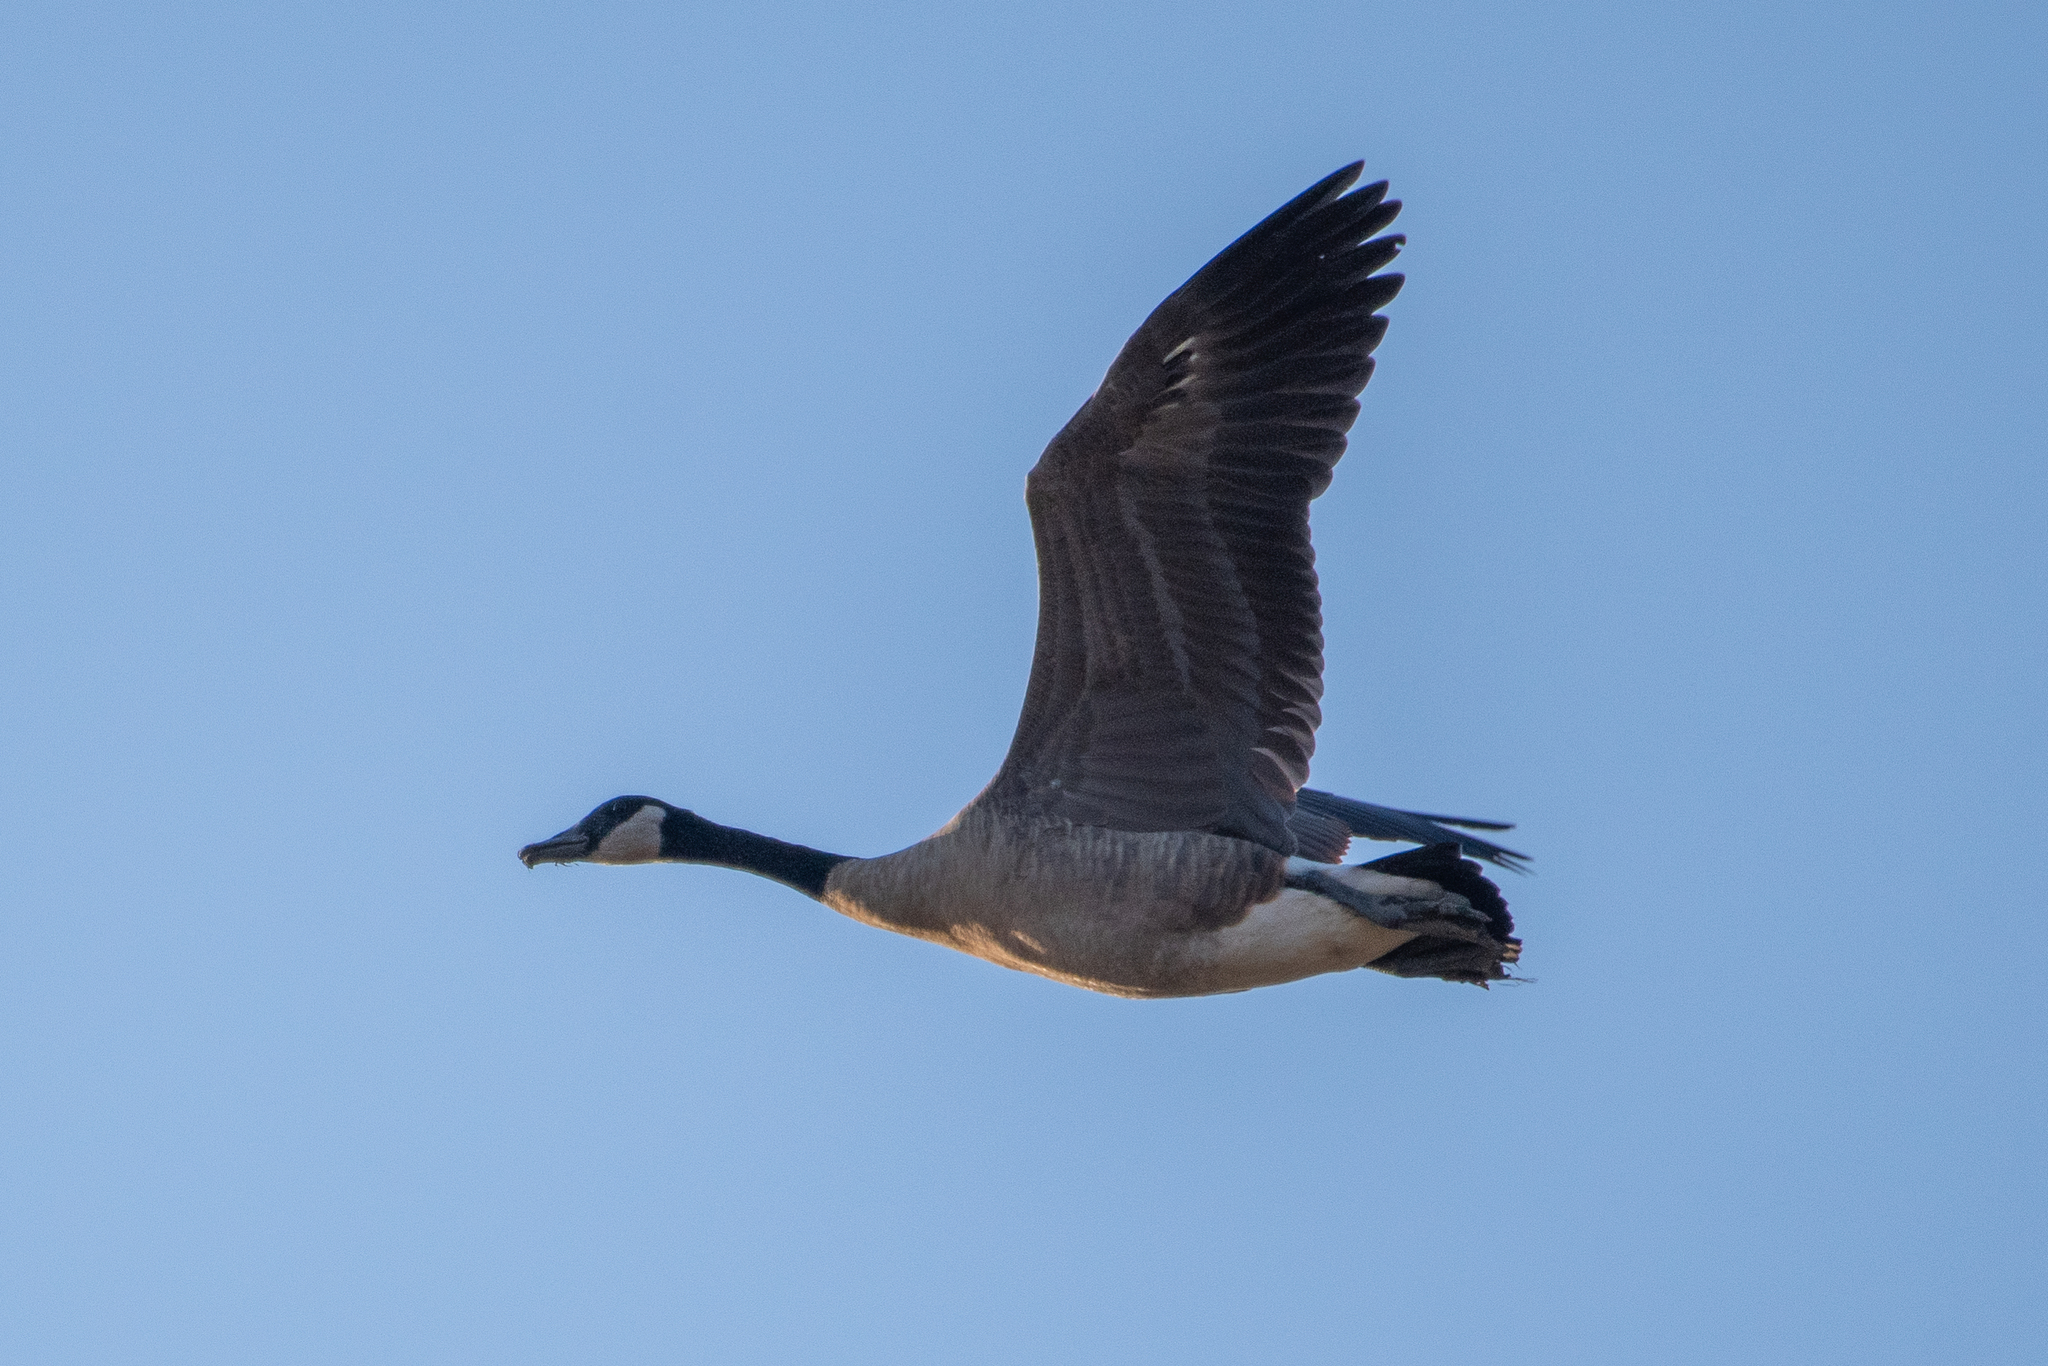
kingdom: Animalia
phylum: Chordata
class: Aves
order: Anseriformes
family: Anatidae
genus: Branta
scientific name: Branta canadensis
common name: Canada goose
